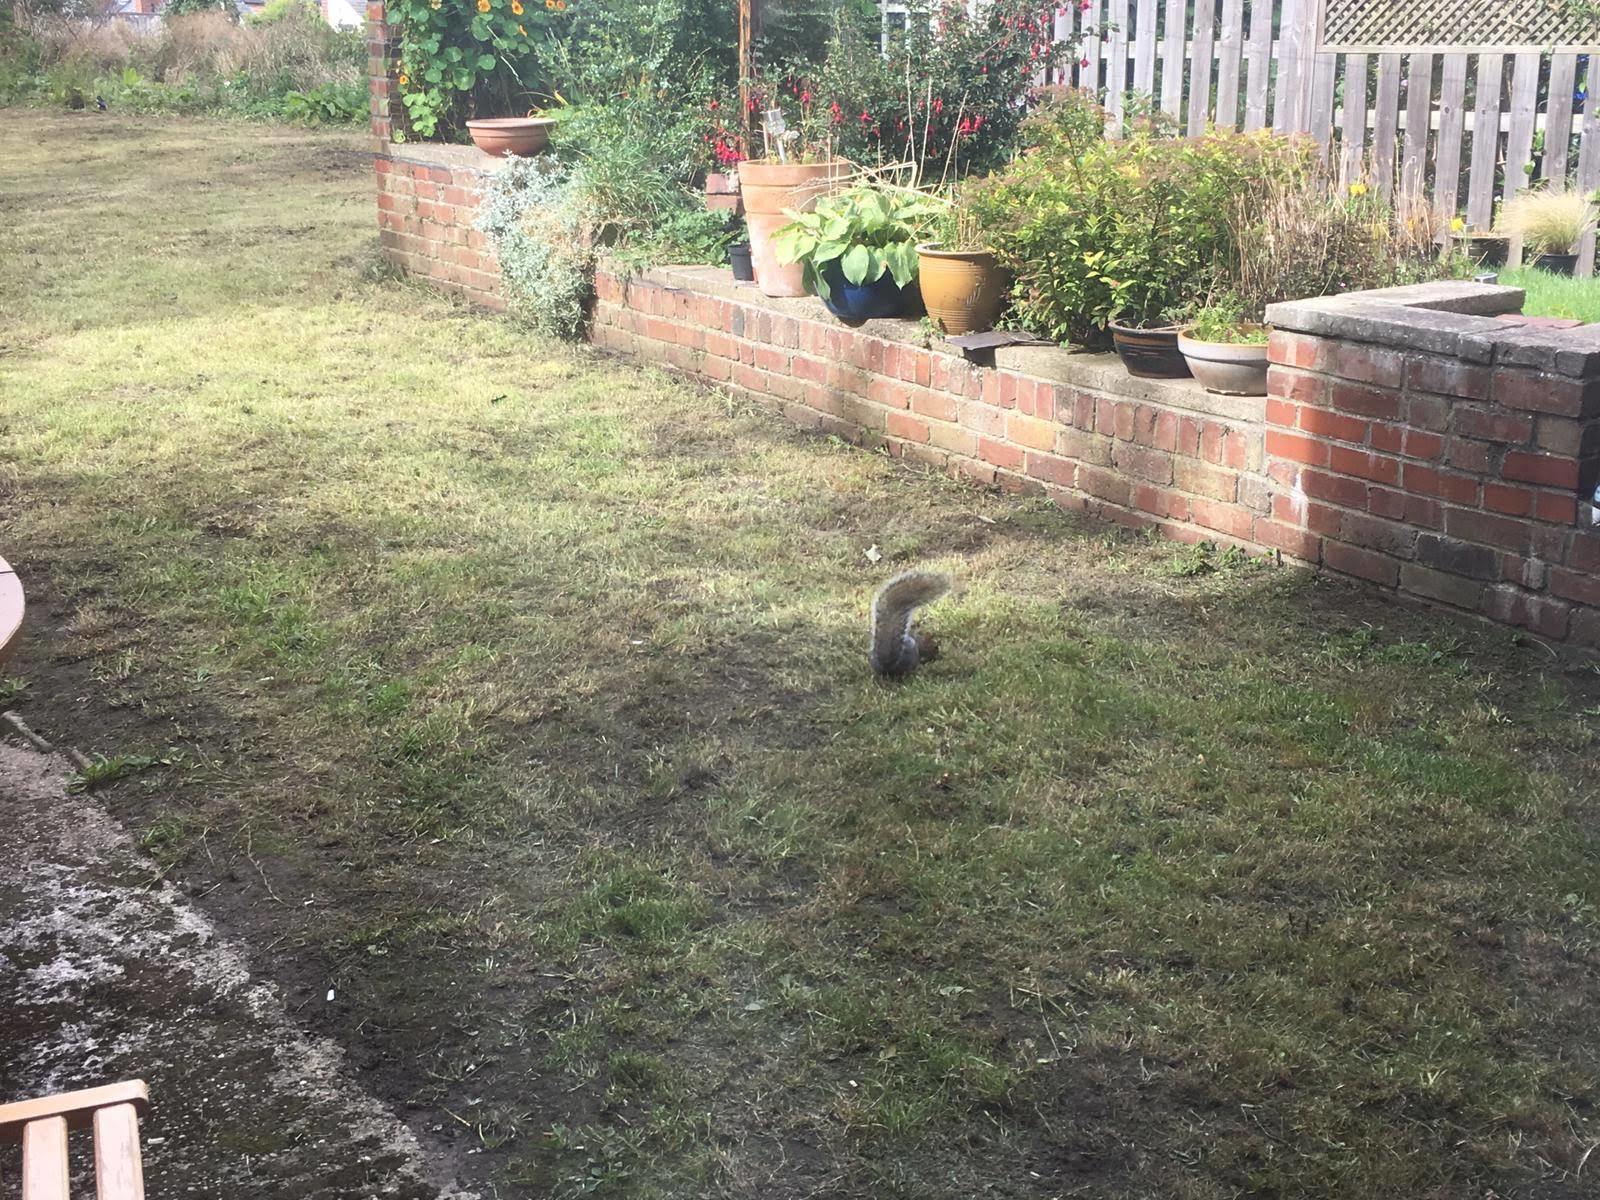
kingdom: Animalia
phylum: Chordata
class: Mammalia
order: Rodentia
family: Sciuridae
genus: Sciurus
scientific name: Sciurus carolinensis
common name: Eastern gray squirrel
